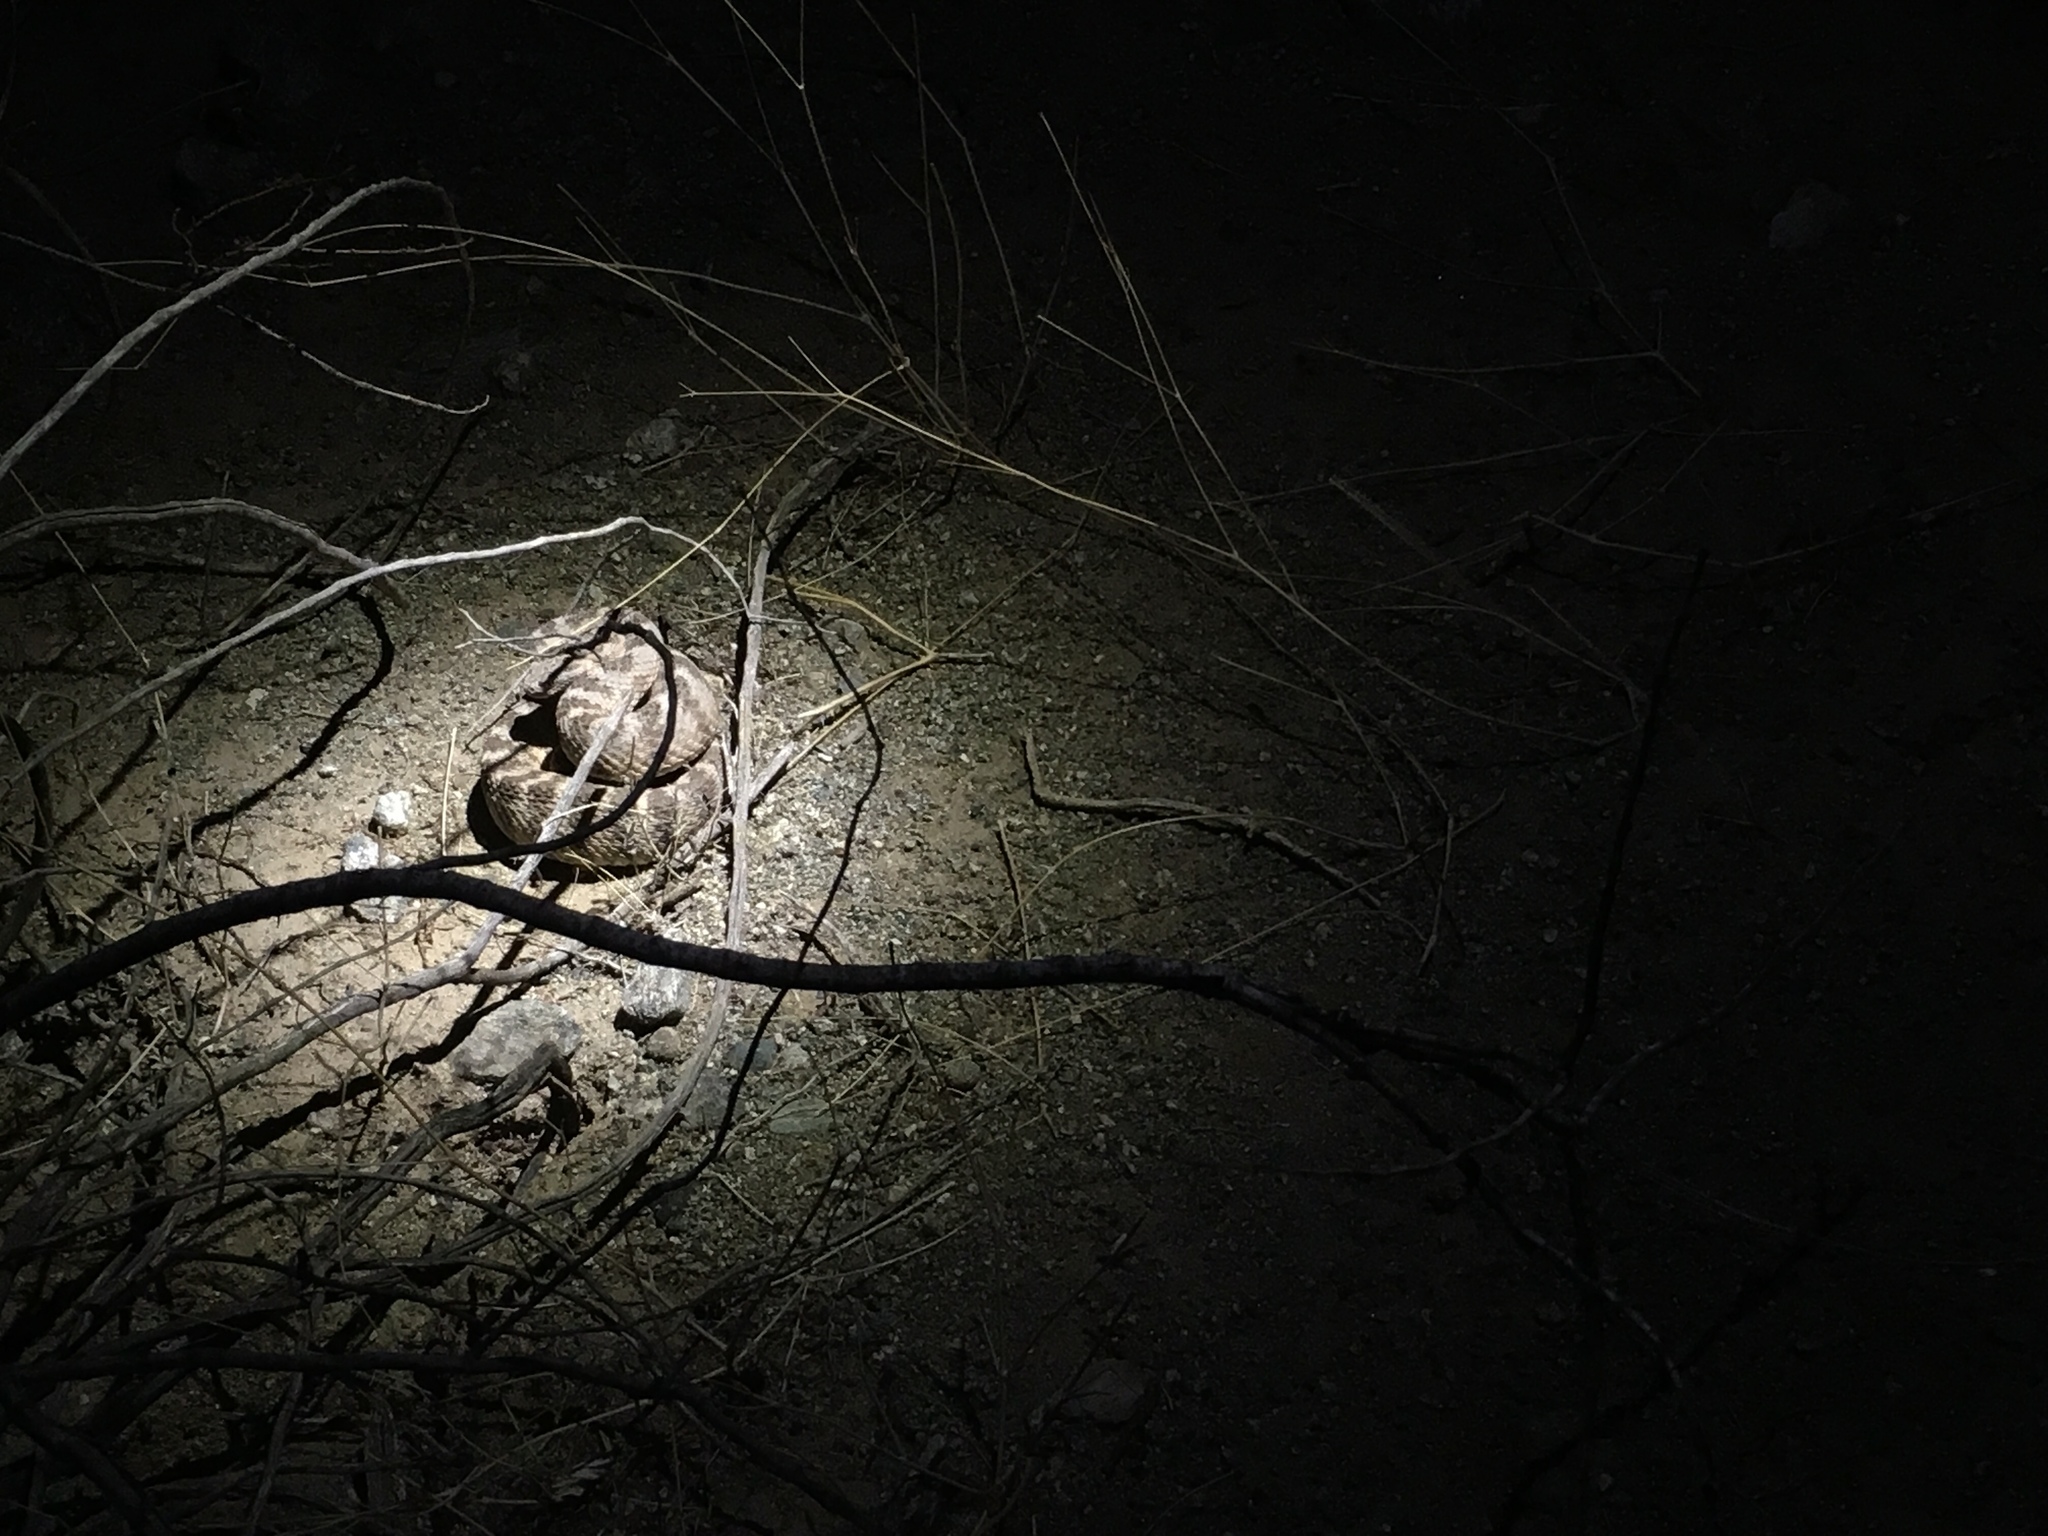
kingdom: Animalia
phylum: Chordata
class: Squamata
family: Viperidae
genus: Crotalus
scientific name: Crotalus tigris
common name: Tiger rattlesnake
